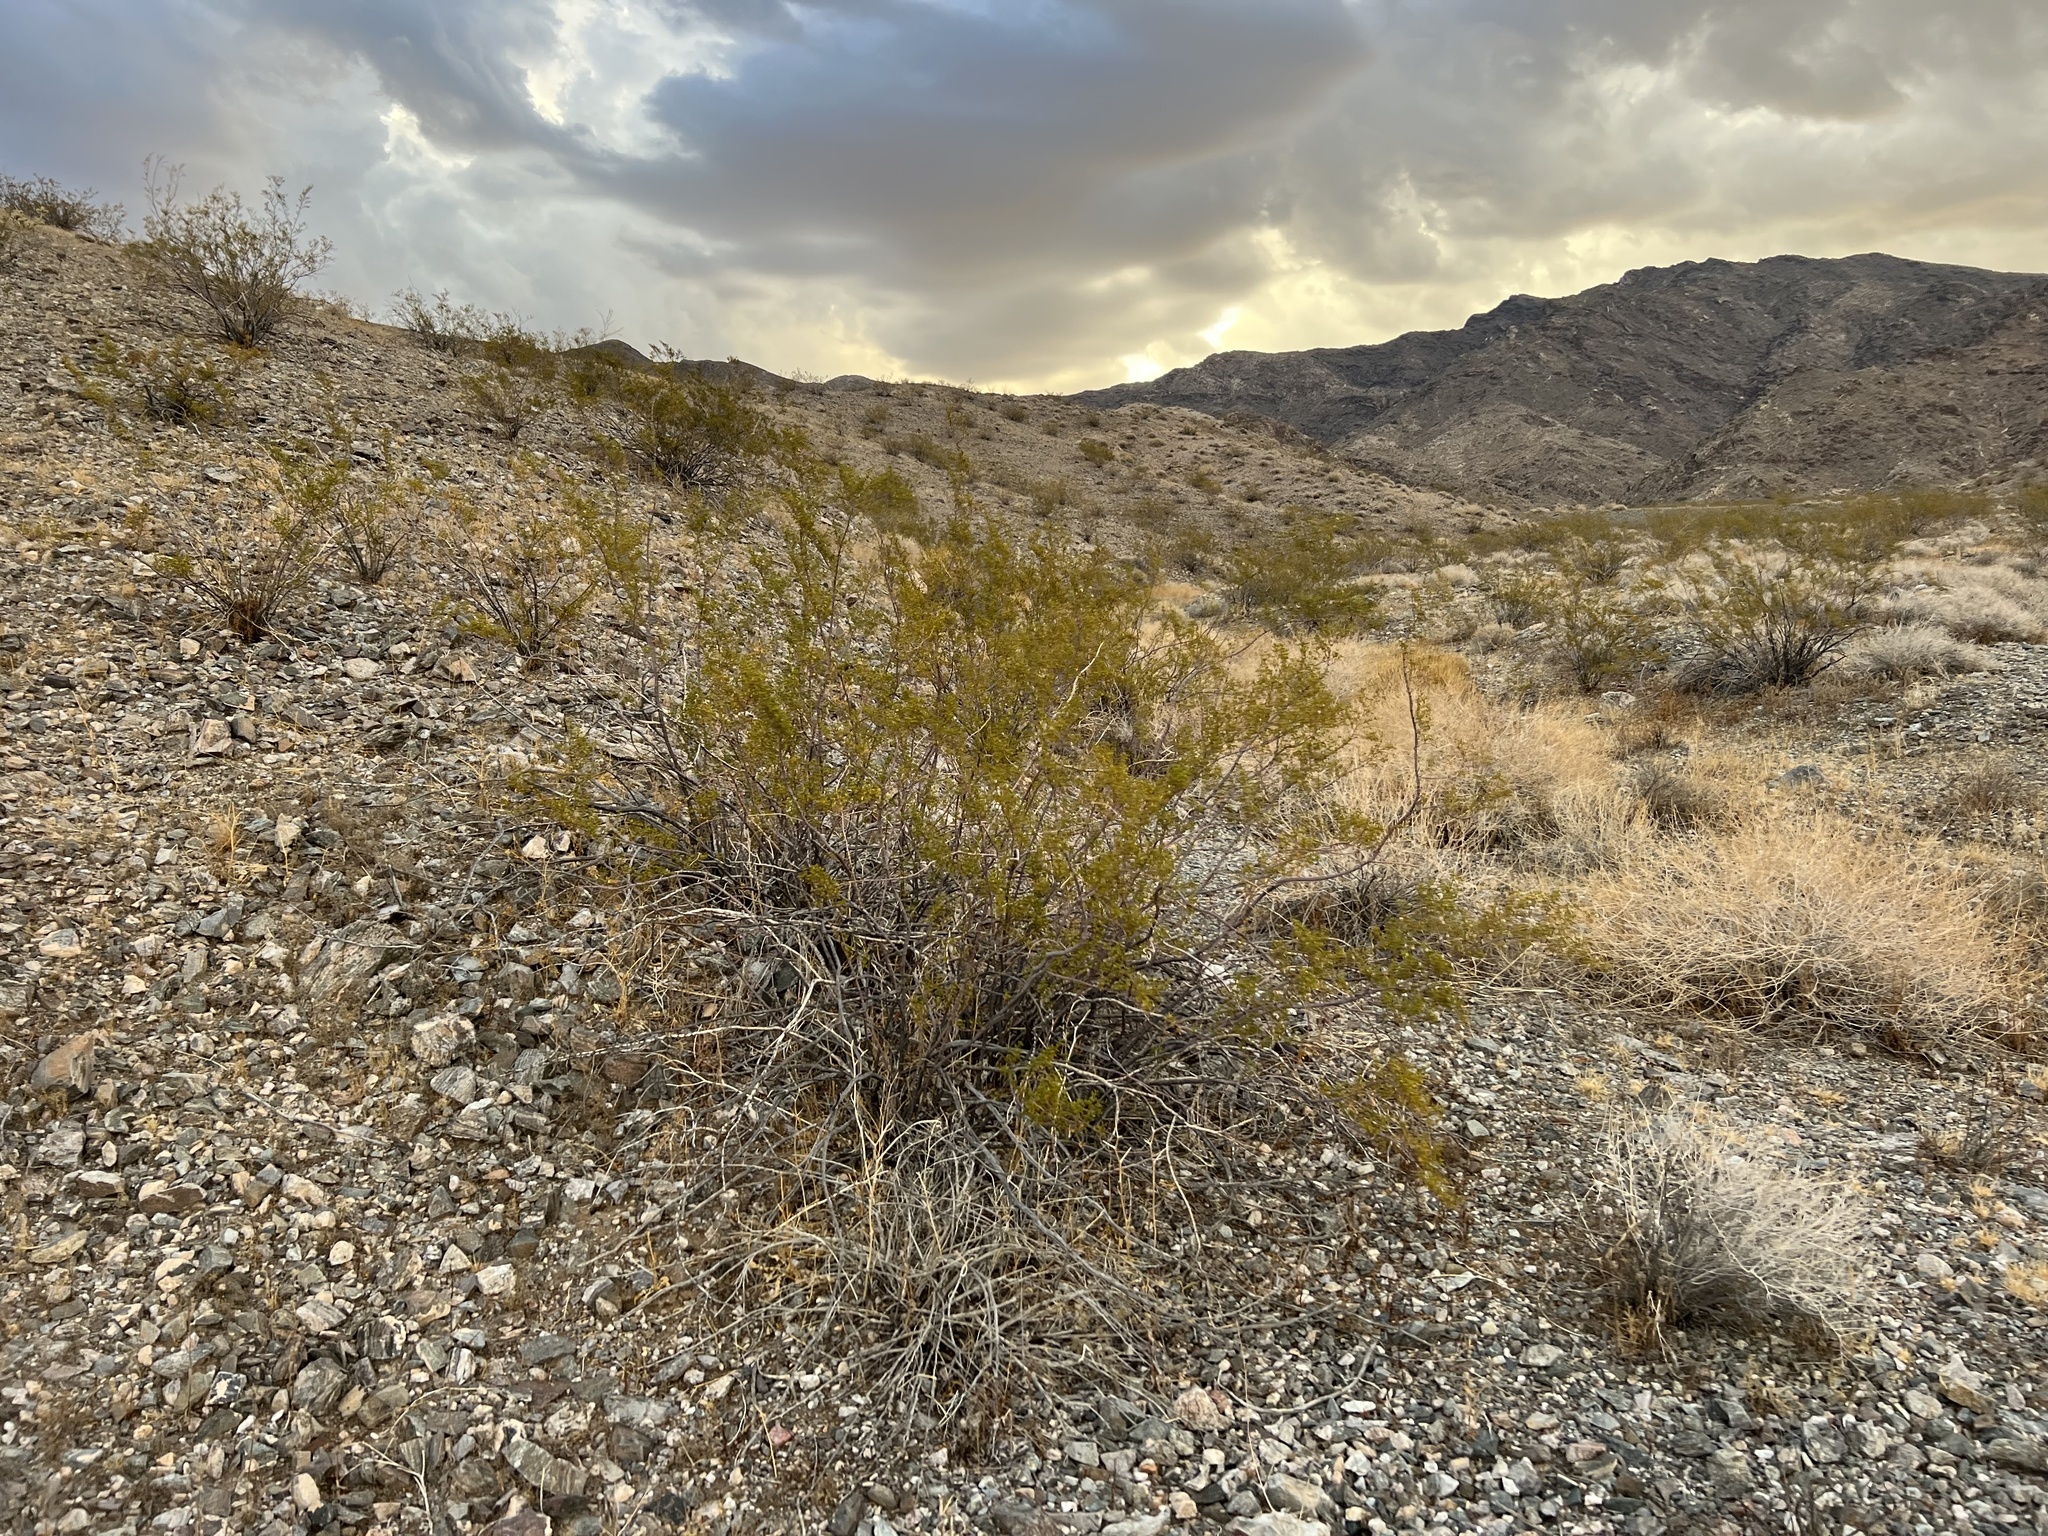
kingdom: Plantae
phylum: Tracheophyta
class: Magnoliopsida
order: Zygophyllales
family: Zygophyllaceae
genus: Larrea
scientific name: Larrea tridentata
